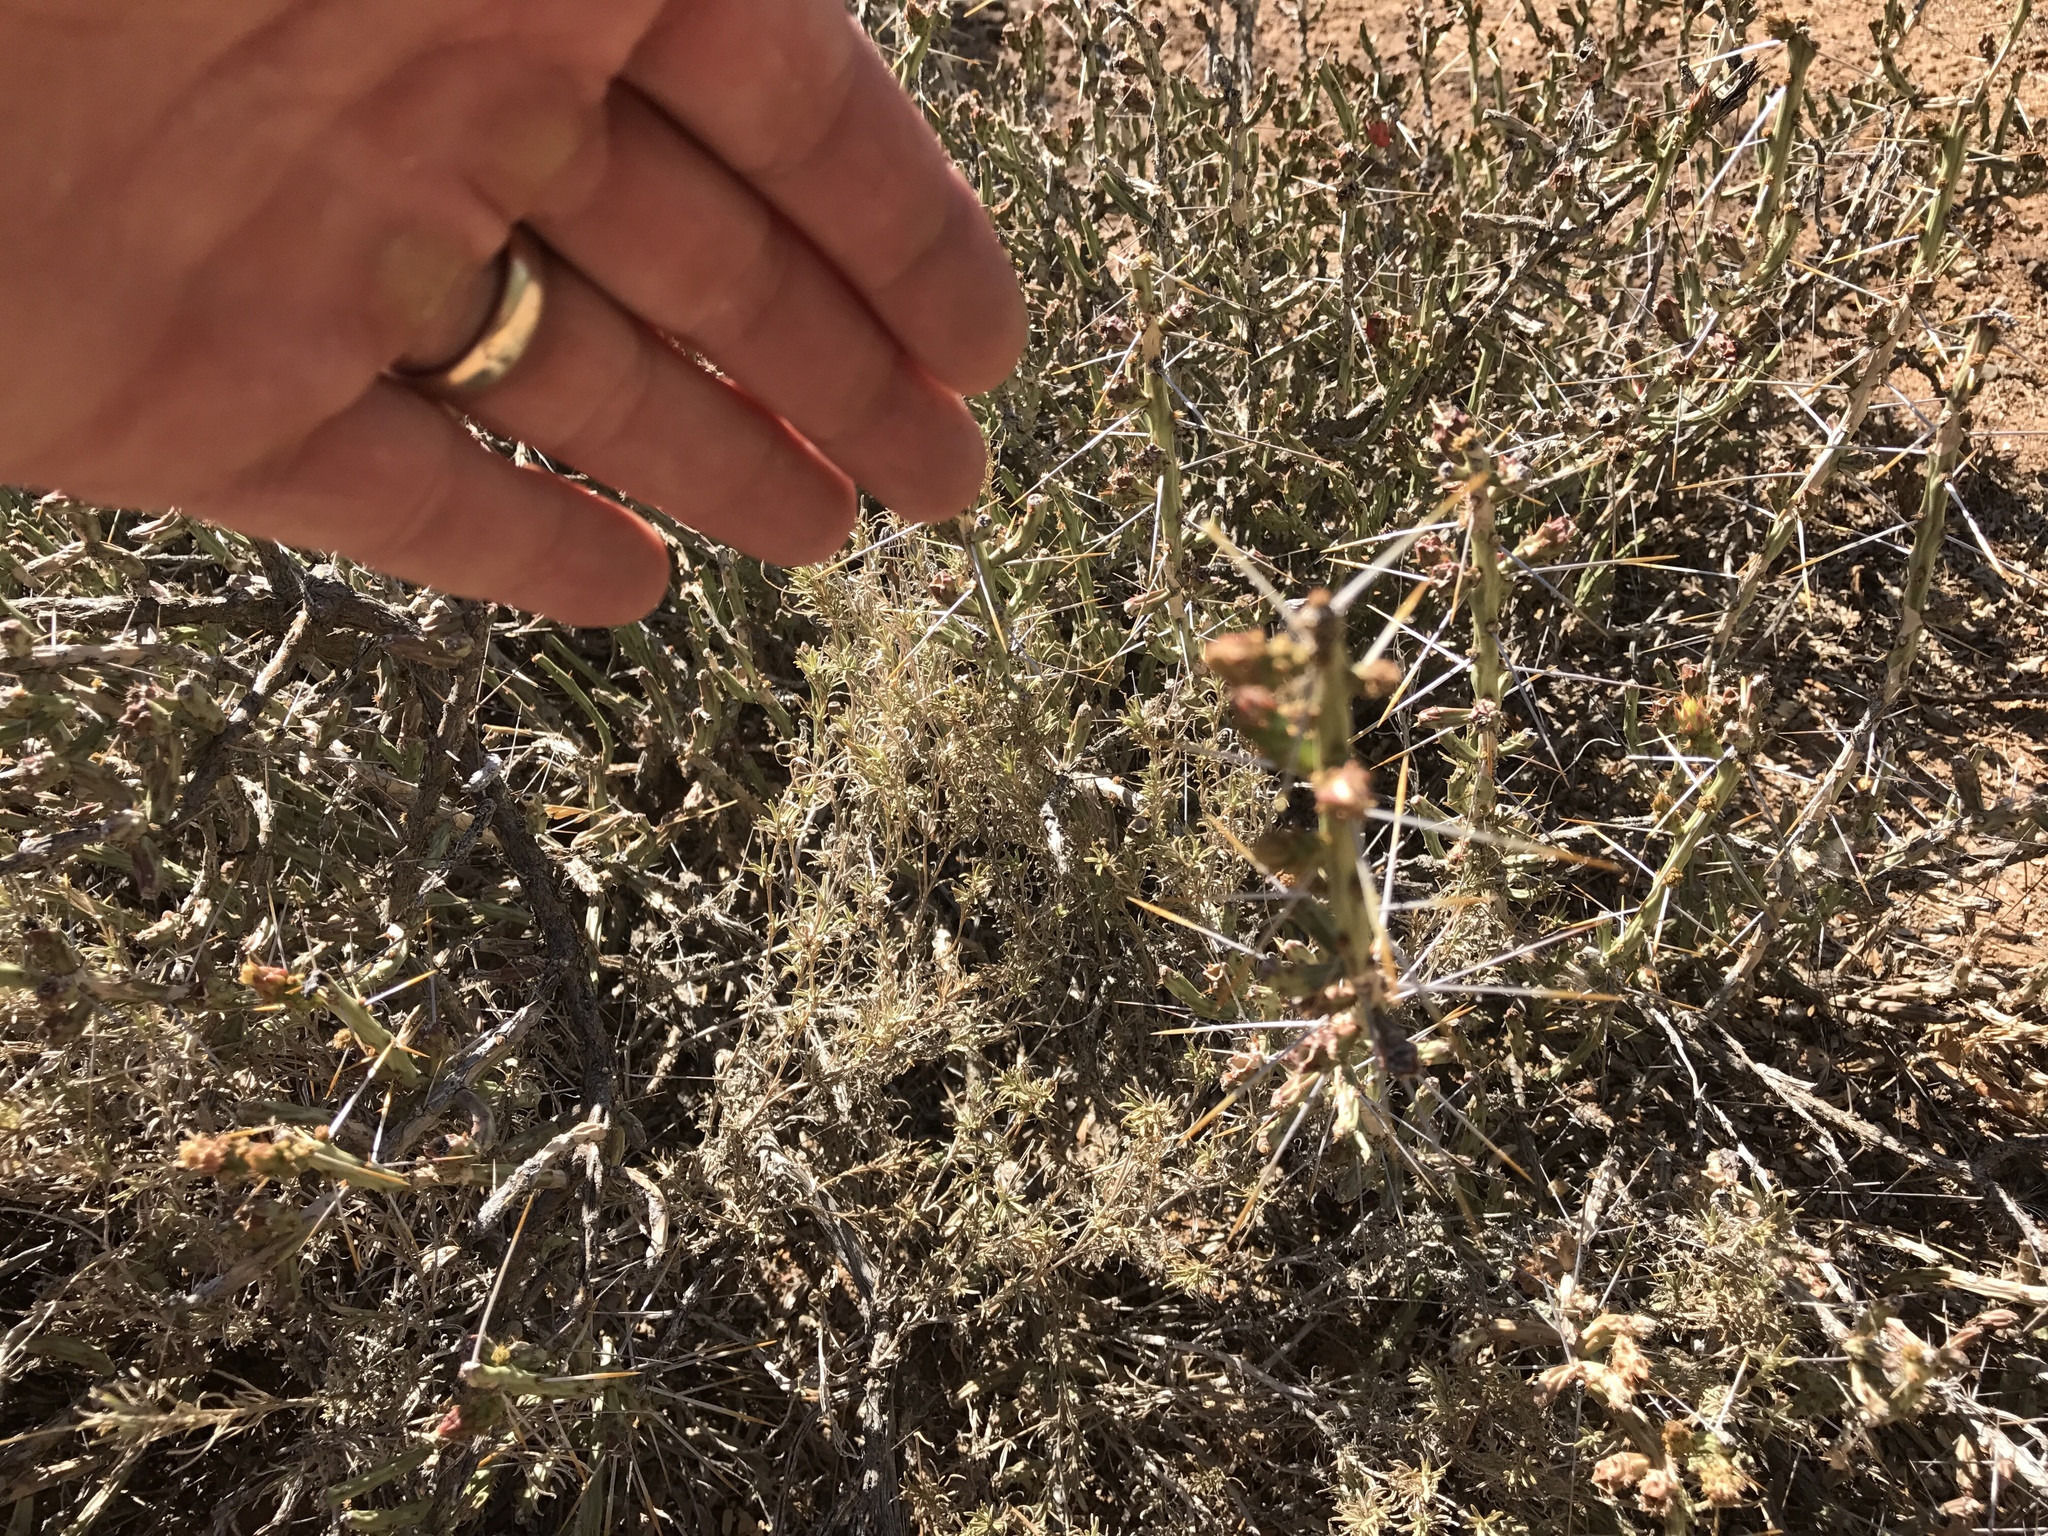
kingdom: Plantae
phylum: Tracheophyta
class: Magnoliopsida
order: Caryophyllales
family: Cactaceae
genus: Cylindropuntia
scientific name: Cylindropuntia leptocaulis
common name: Christmas cactus
